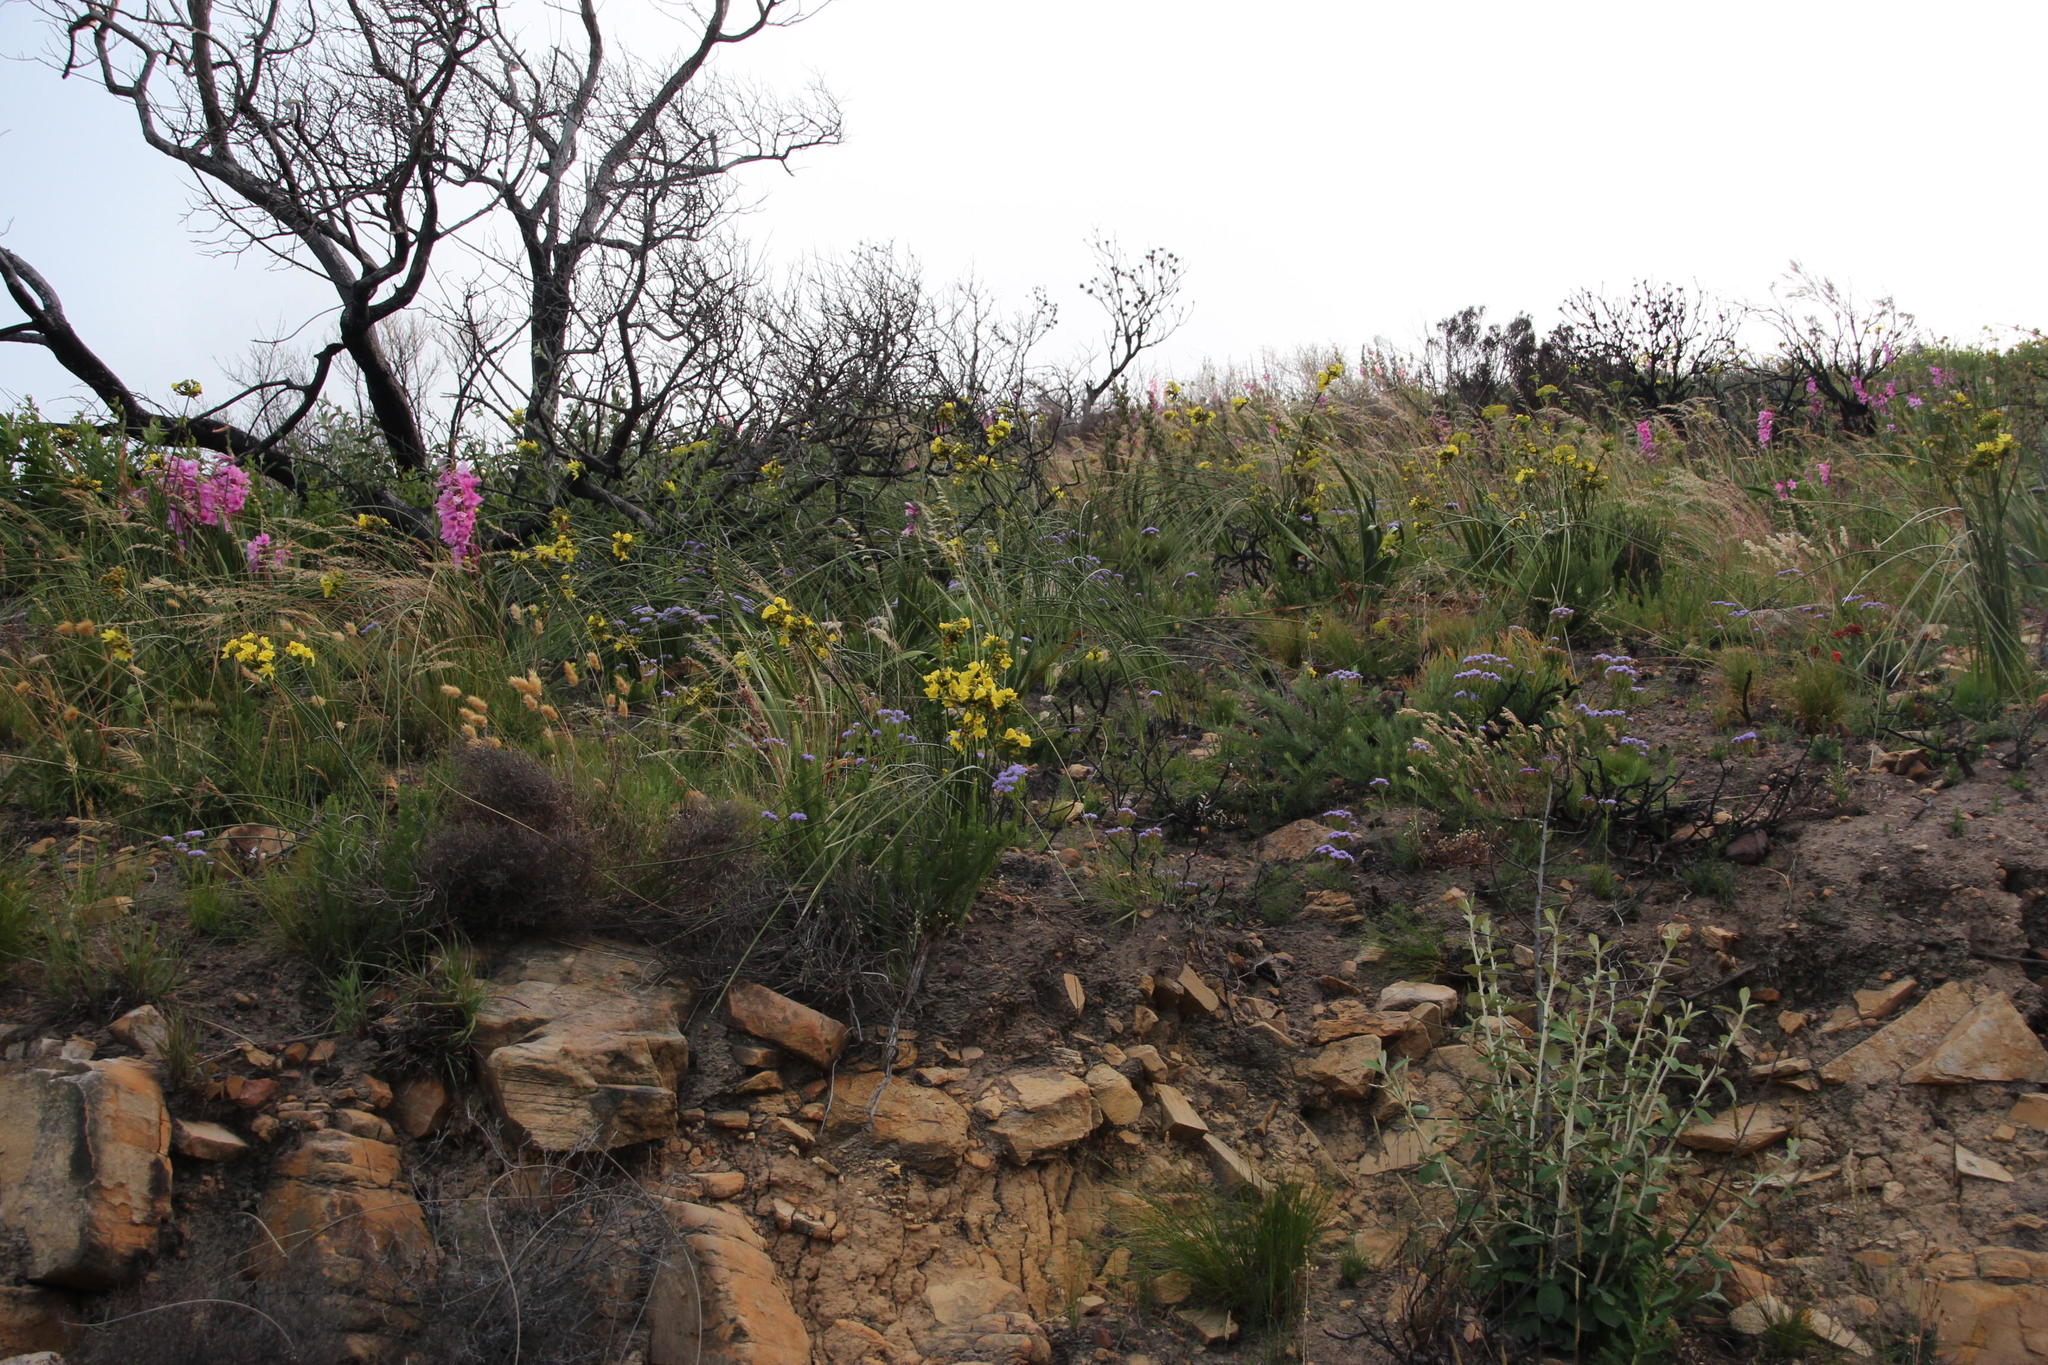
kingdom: Plantae
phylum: Tracheophyta
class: Liliopsida
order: Asparagales
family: Iridaceae
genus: Bobartia
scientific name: Bobartia indica
